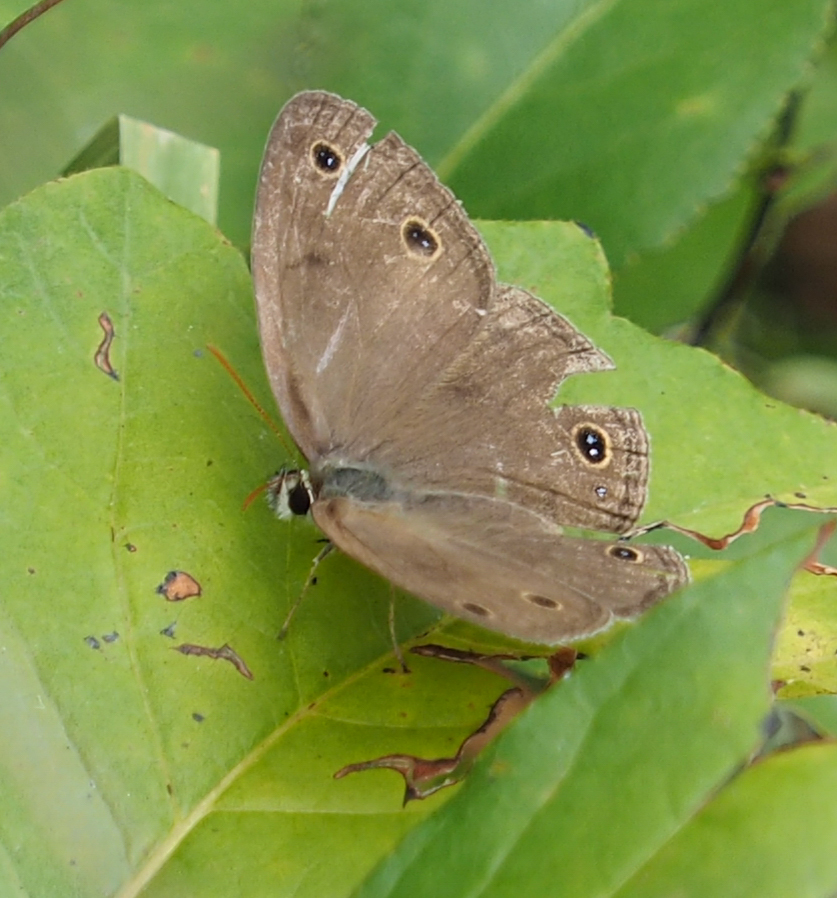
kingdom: Animalia
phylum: Arthropoda
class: Insecta
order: Lepidoptera
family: Nymphalidae
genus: Euptychia
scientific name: Euptychia cymela
